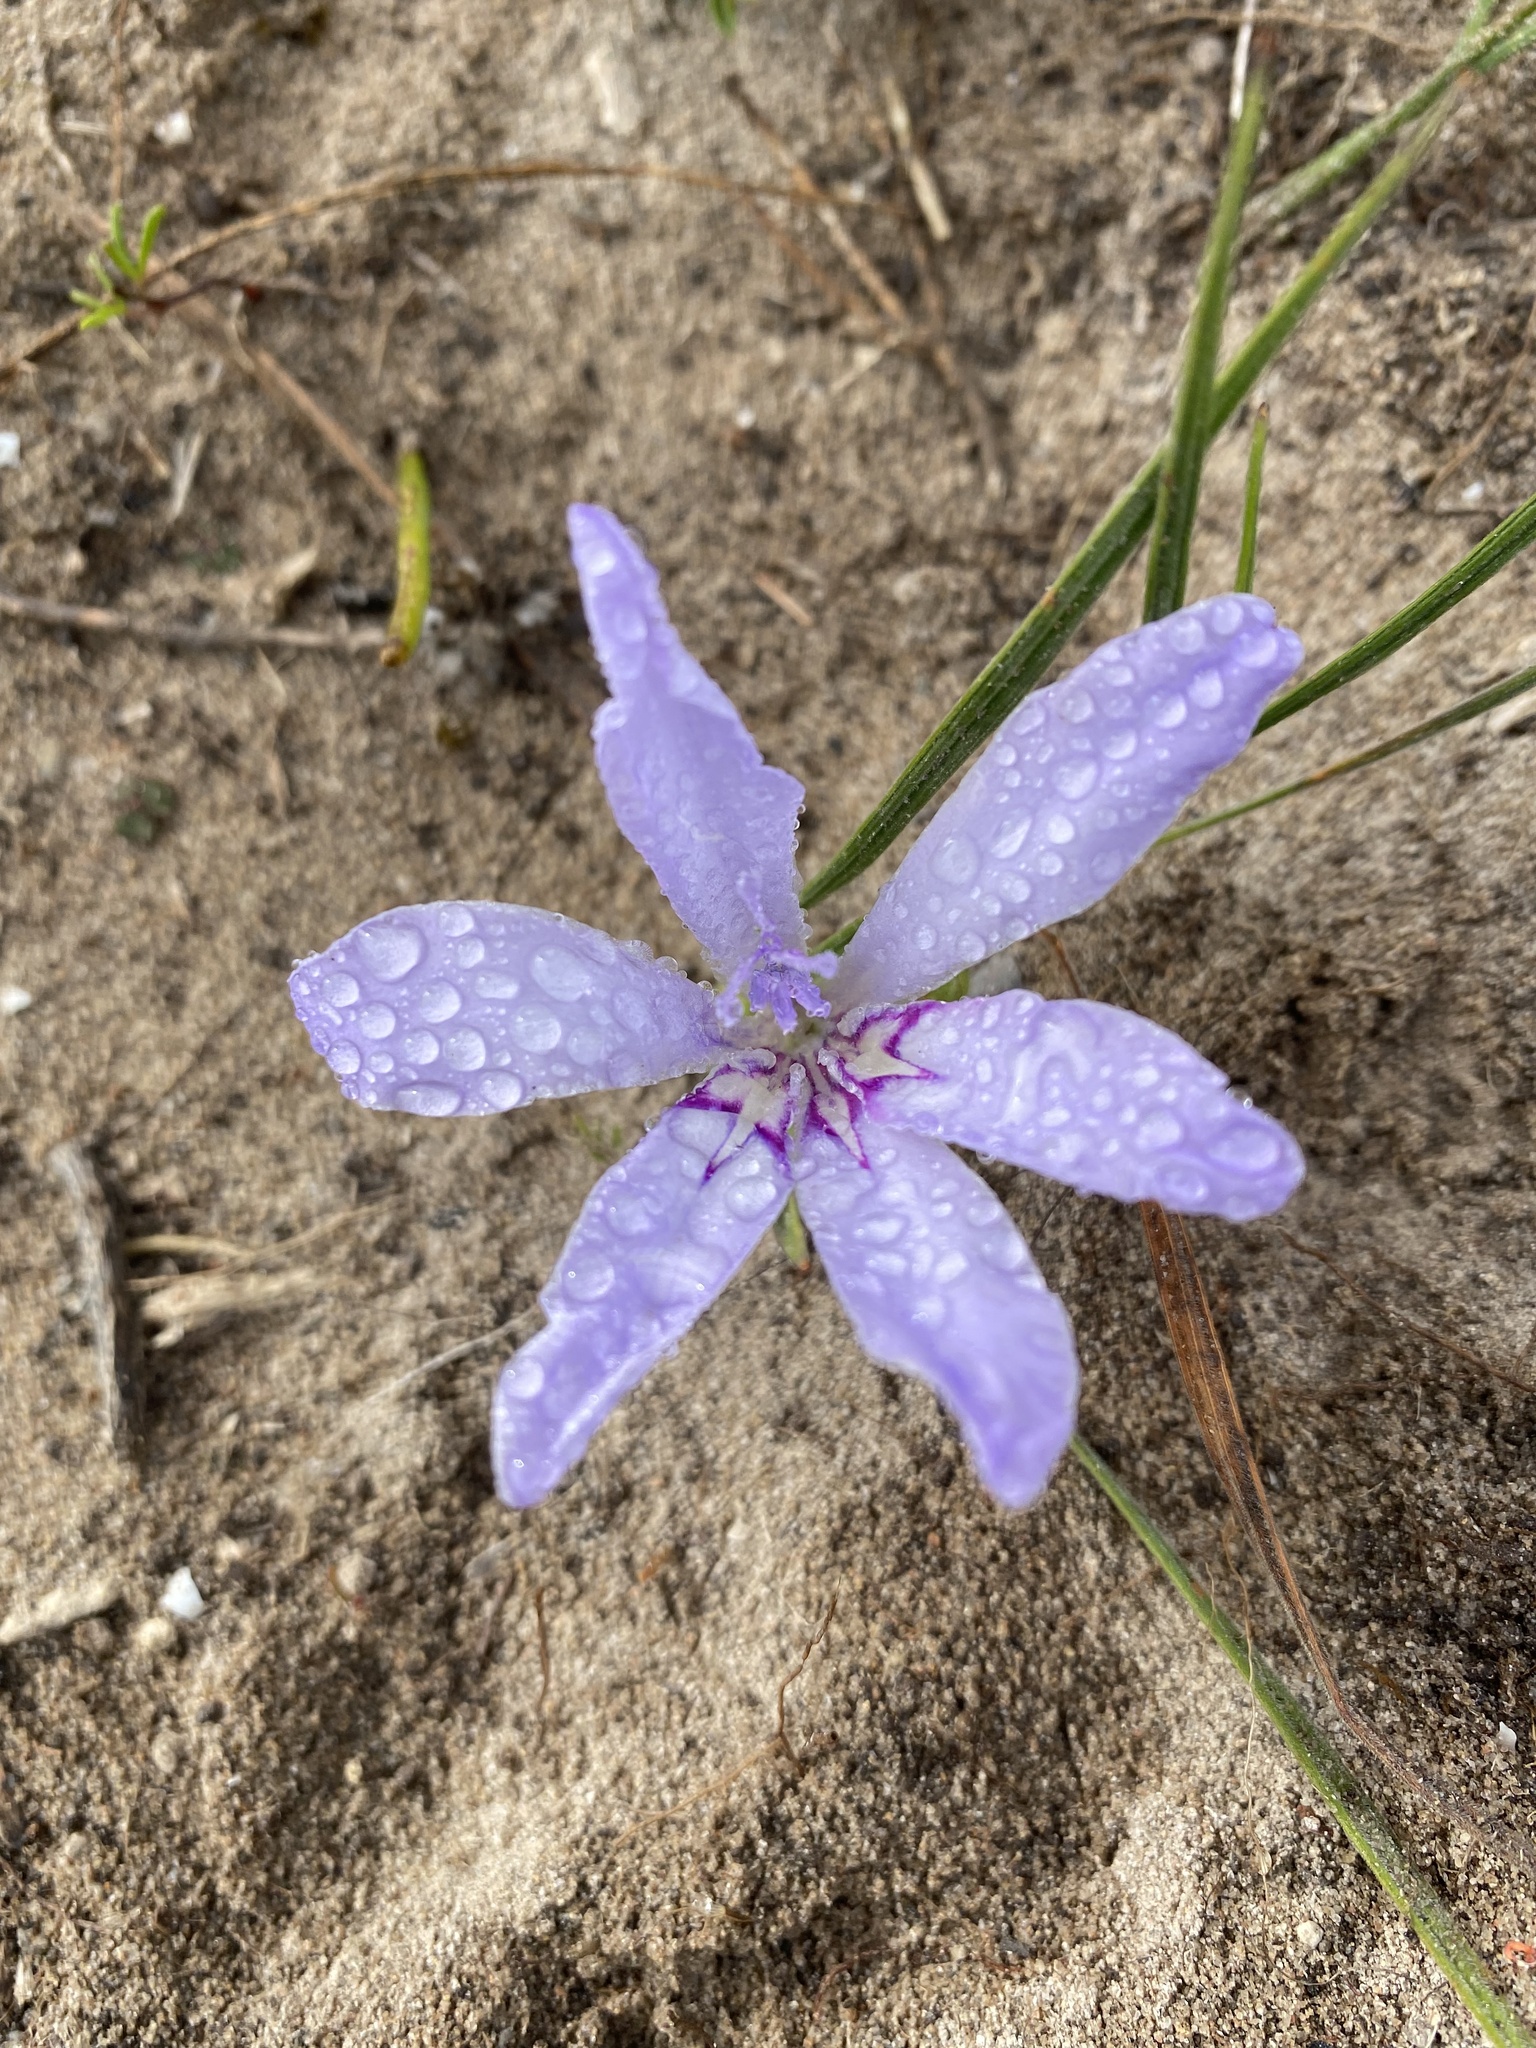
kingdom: Plantae
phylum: Tracheophyta
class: Liliopsida
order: Asparagales
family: Iridaceae
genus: Babiana
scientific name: Babiana ambigua
